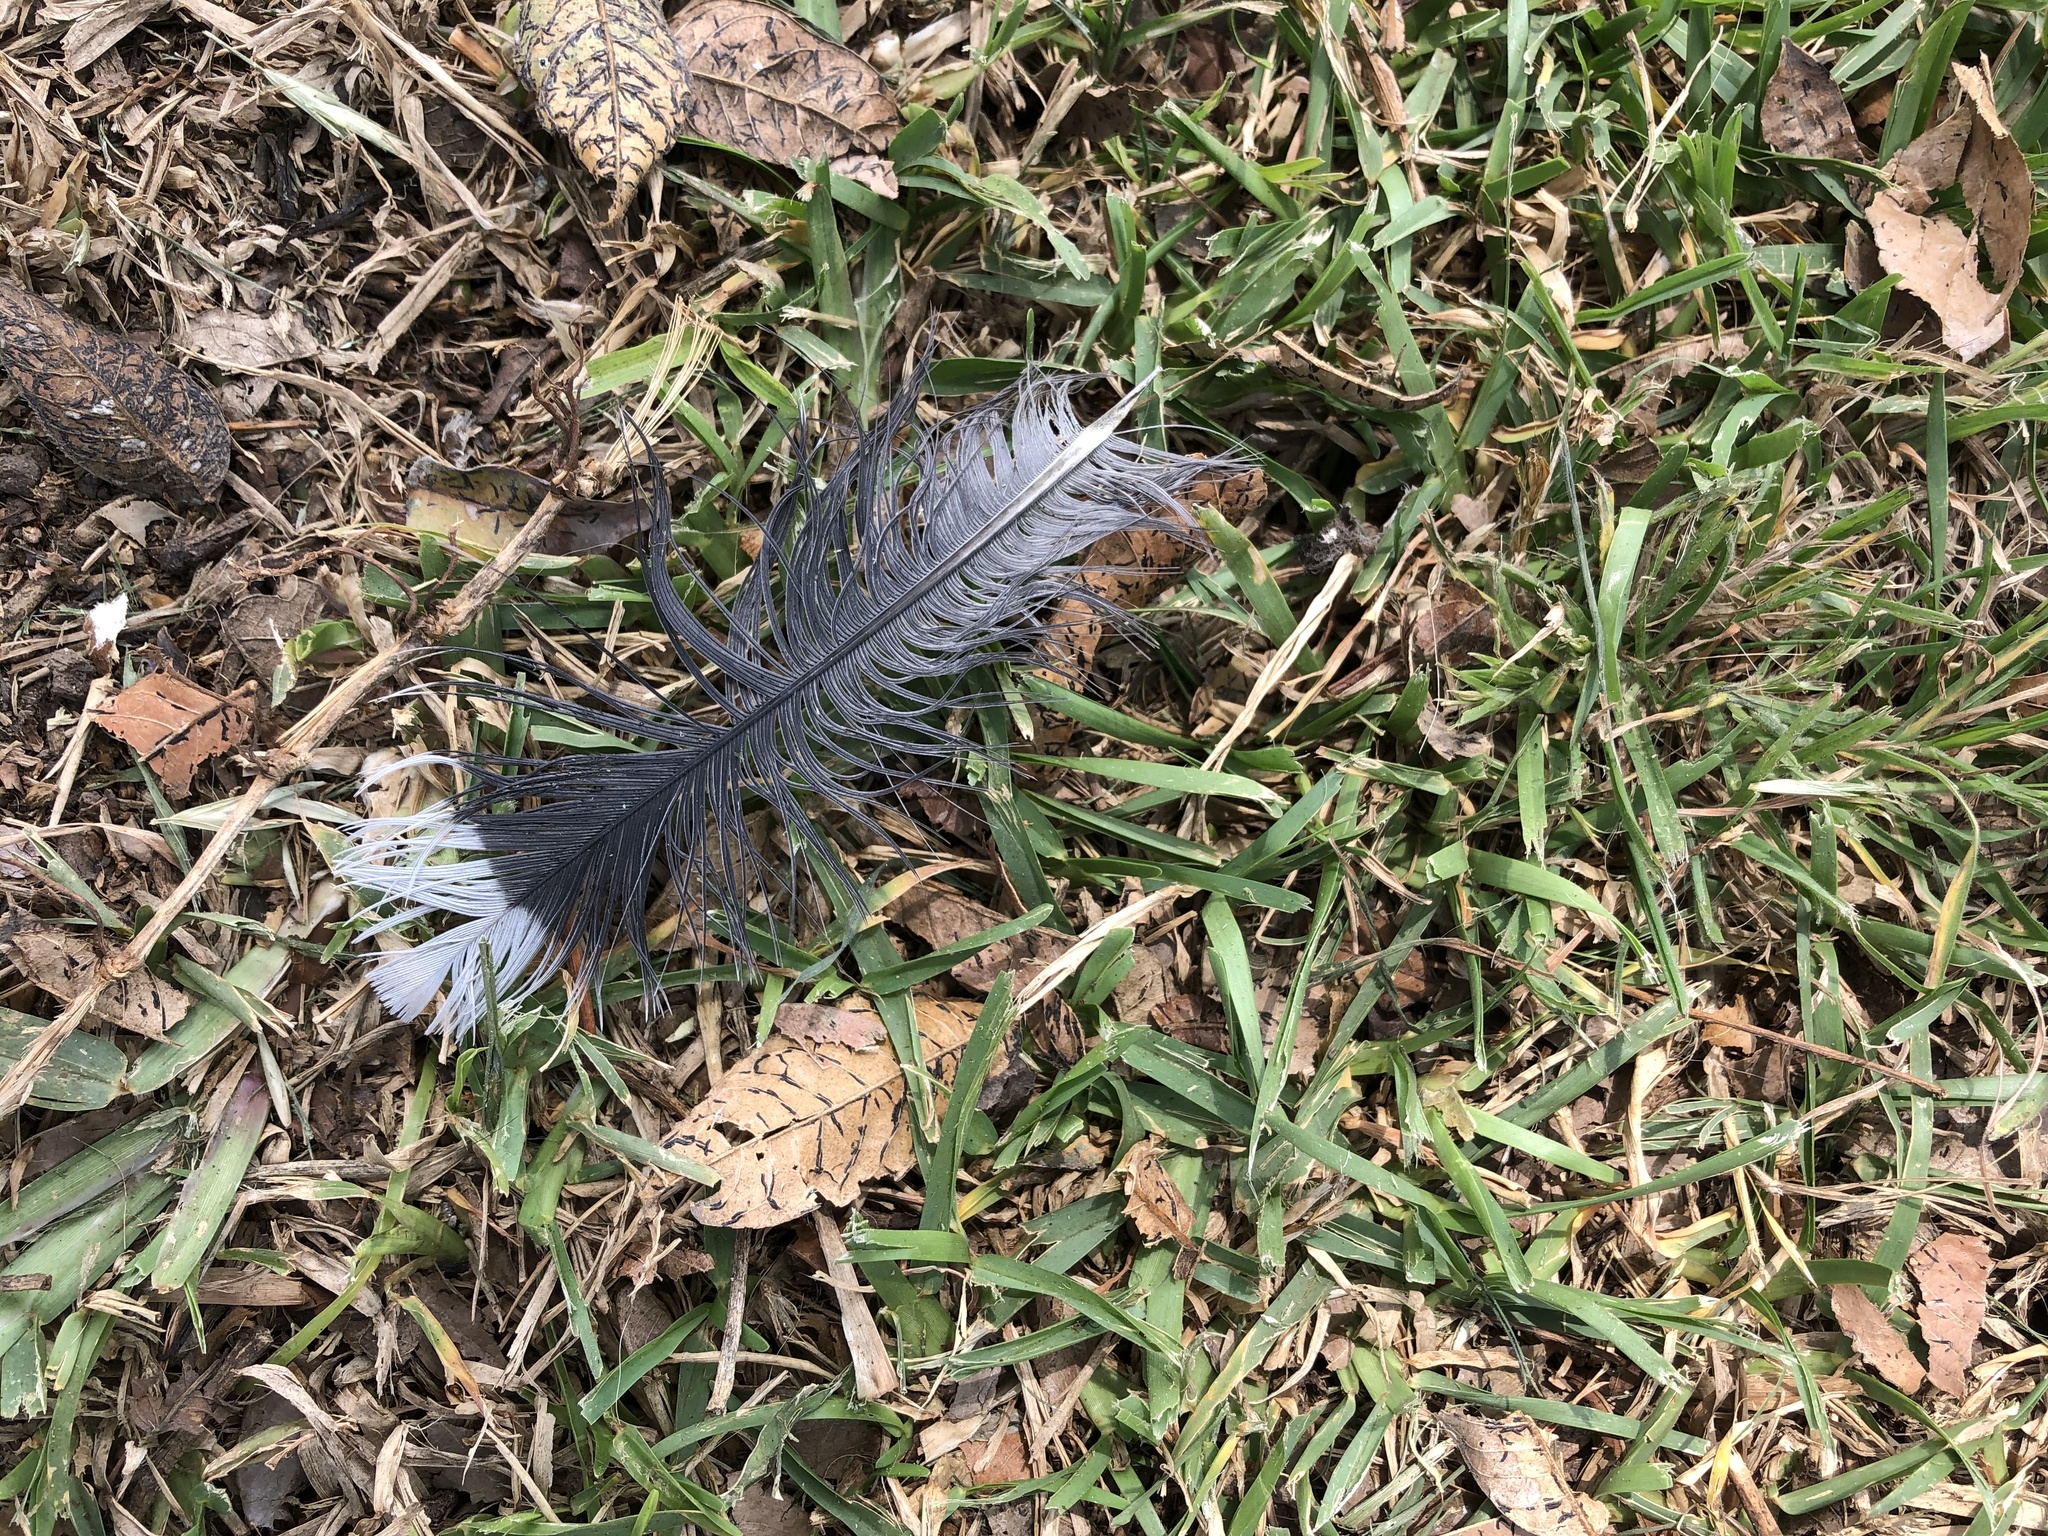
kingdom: Animalia
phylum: Chordata
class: Aves
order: Columbiformes
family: Columbidae
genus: Zenaida
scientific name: Zenaida meloda
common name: West peruvian dove
